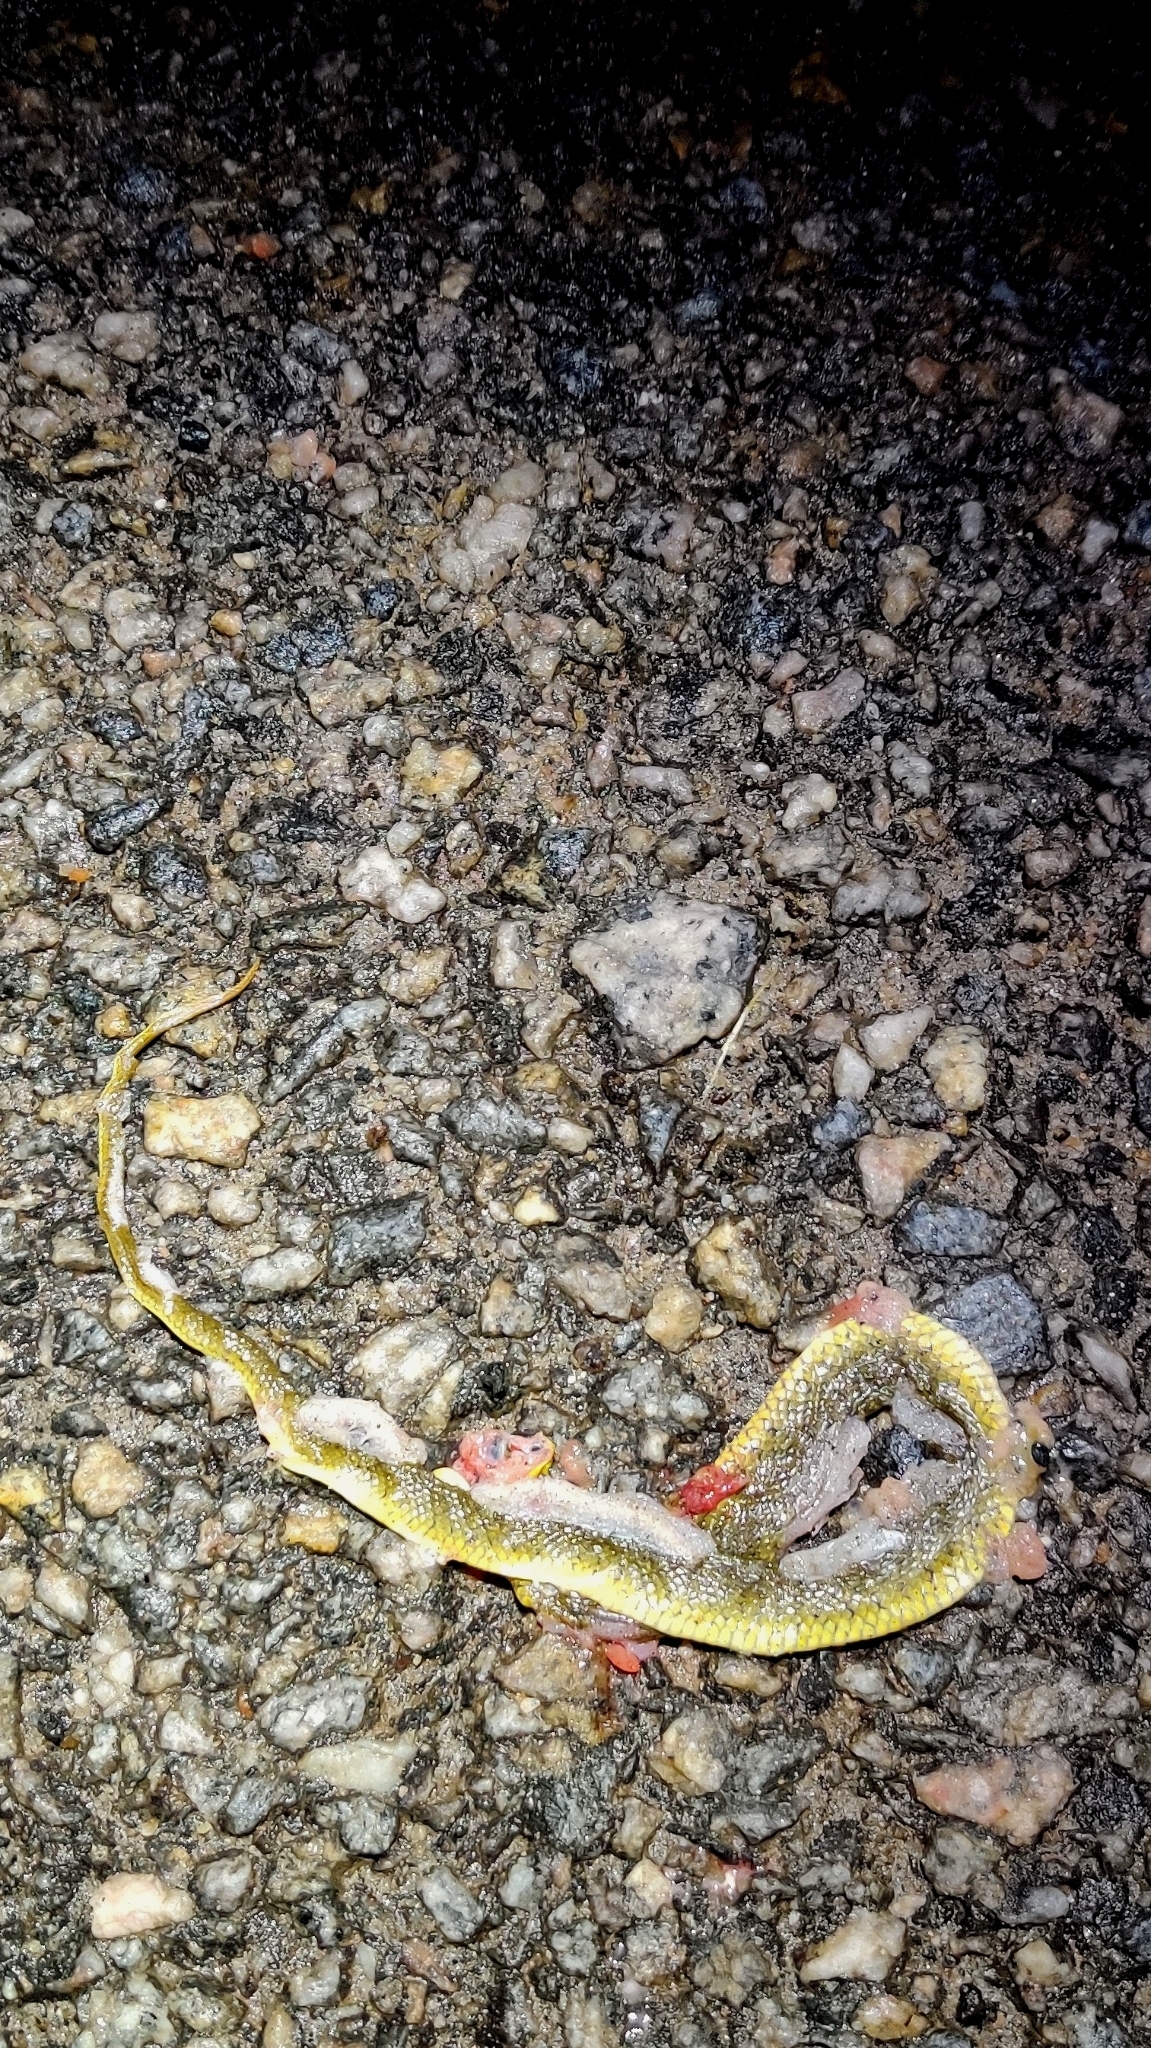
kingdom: Animalia
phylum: Chordata
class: Squamata
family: Colubridae
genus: Fowlea
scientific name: Fowlea piscator
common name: Asiatic water snake
